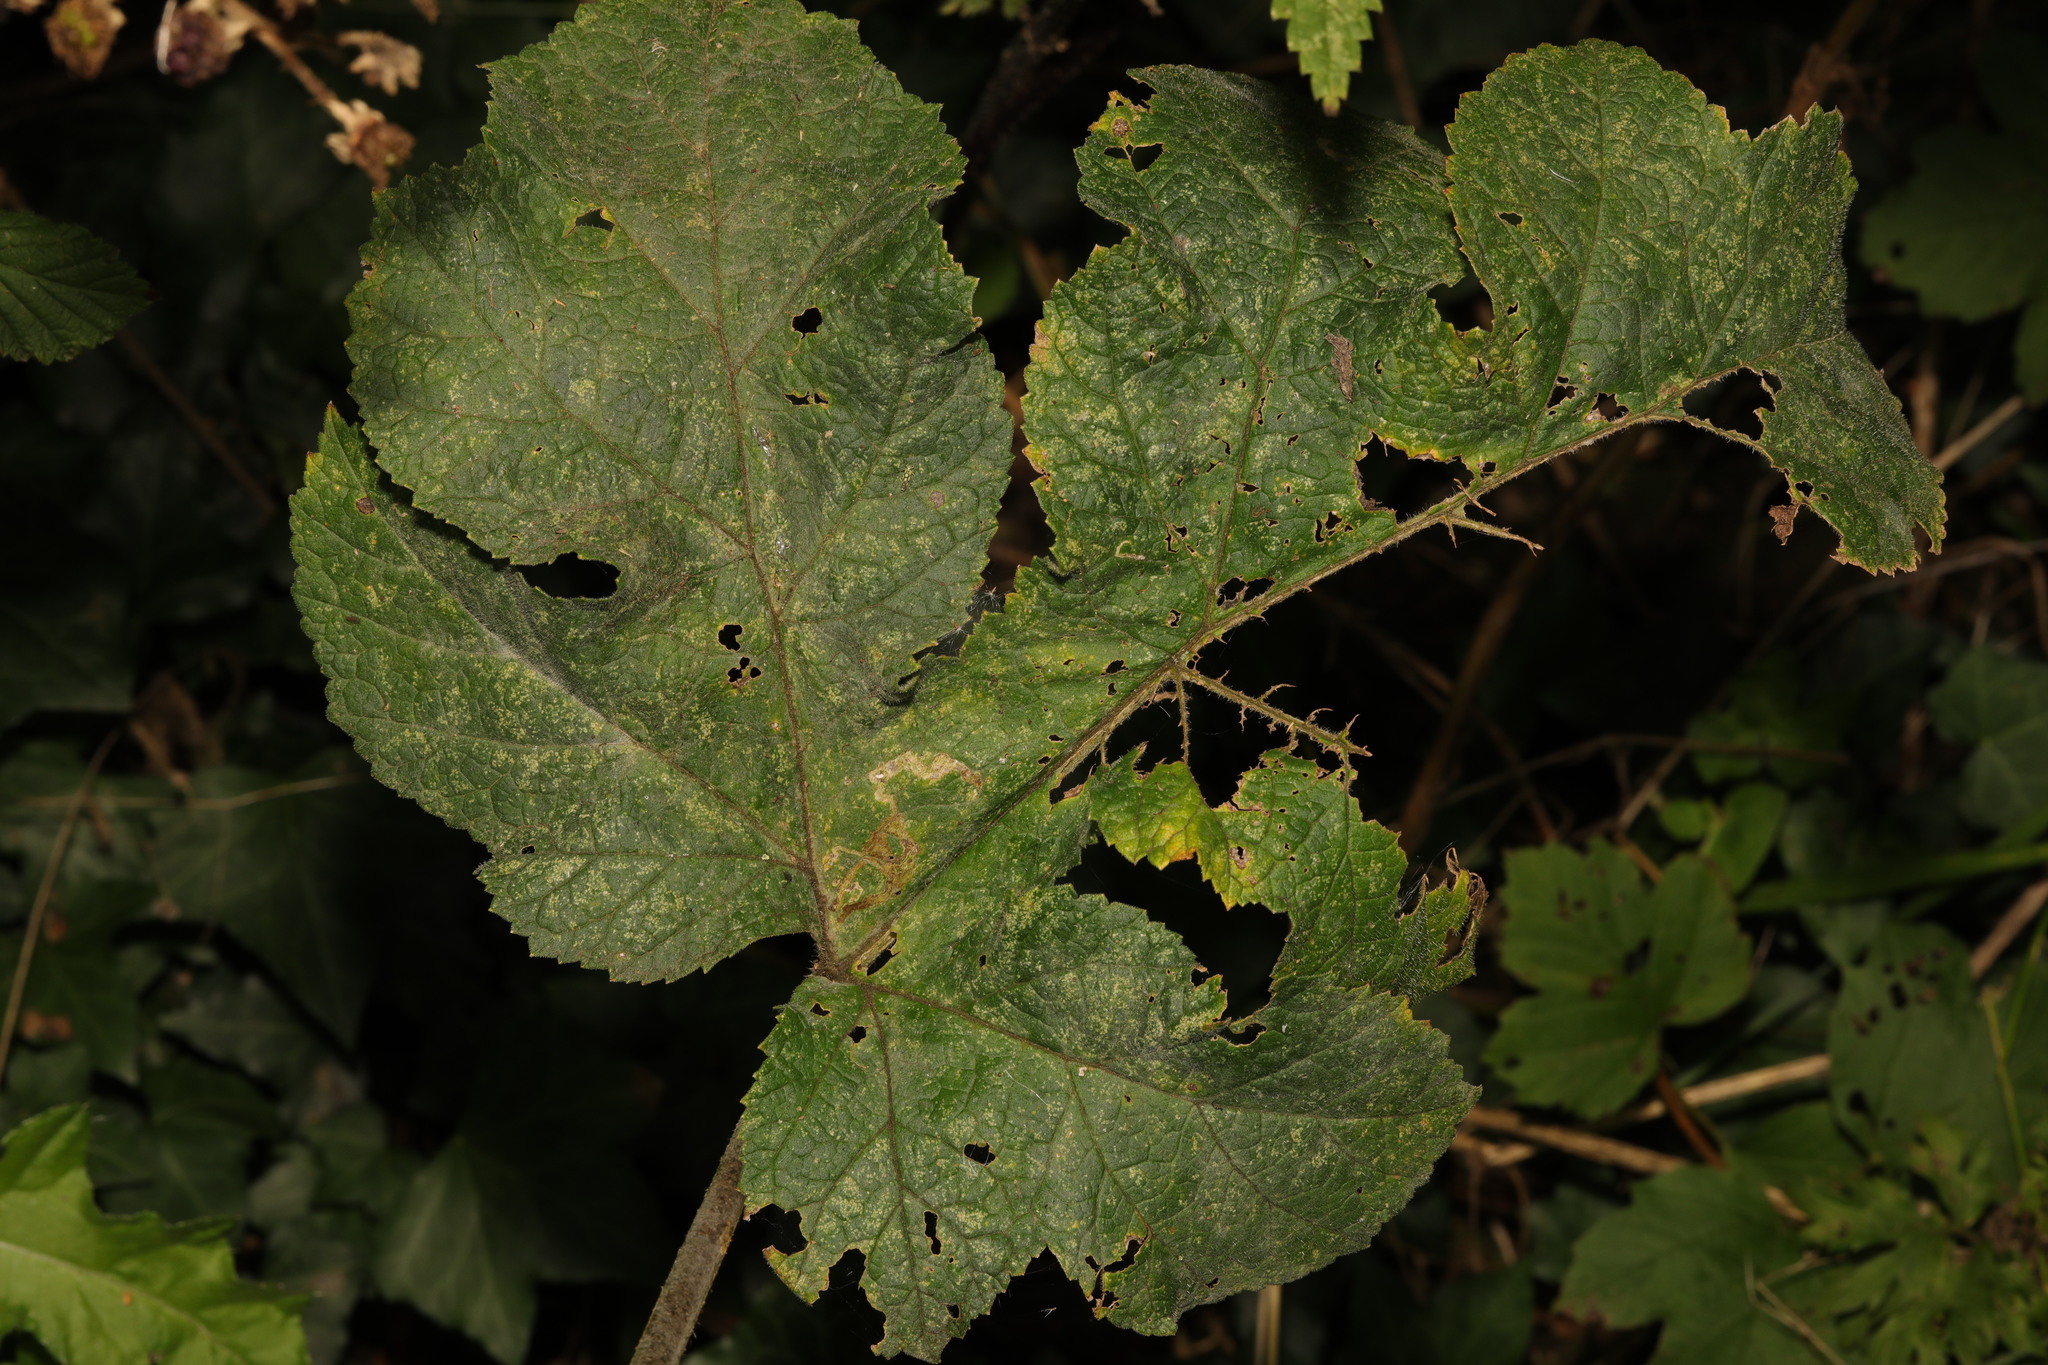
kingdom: Plantae
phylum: Tracheophyta
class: Magnoliopsida
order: Apiales
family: Apiaceae
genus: Heracleum
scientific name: Heracleum sphondylium
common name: Hogweed
